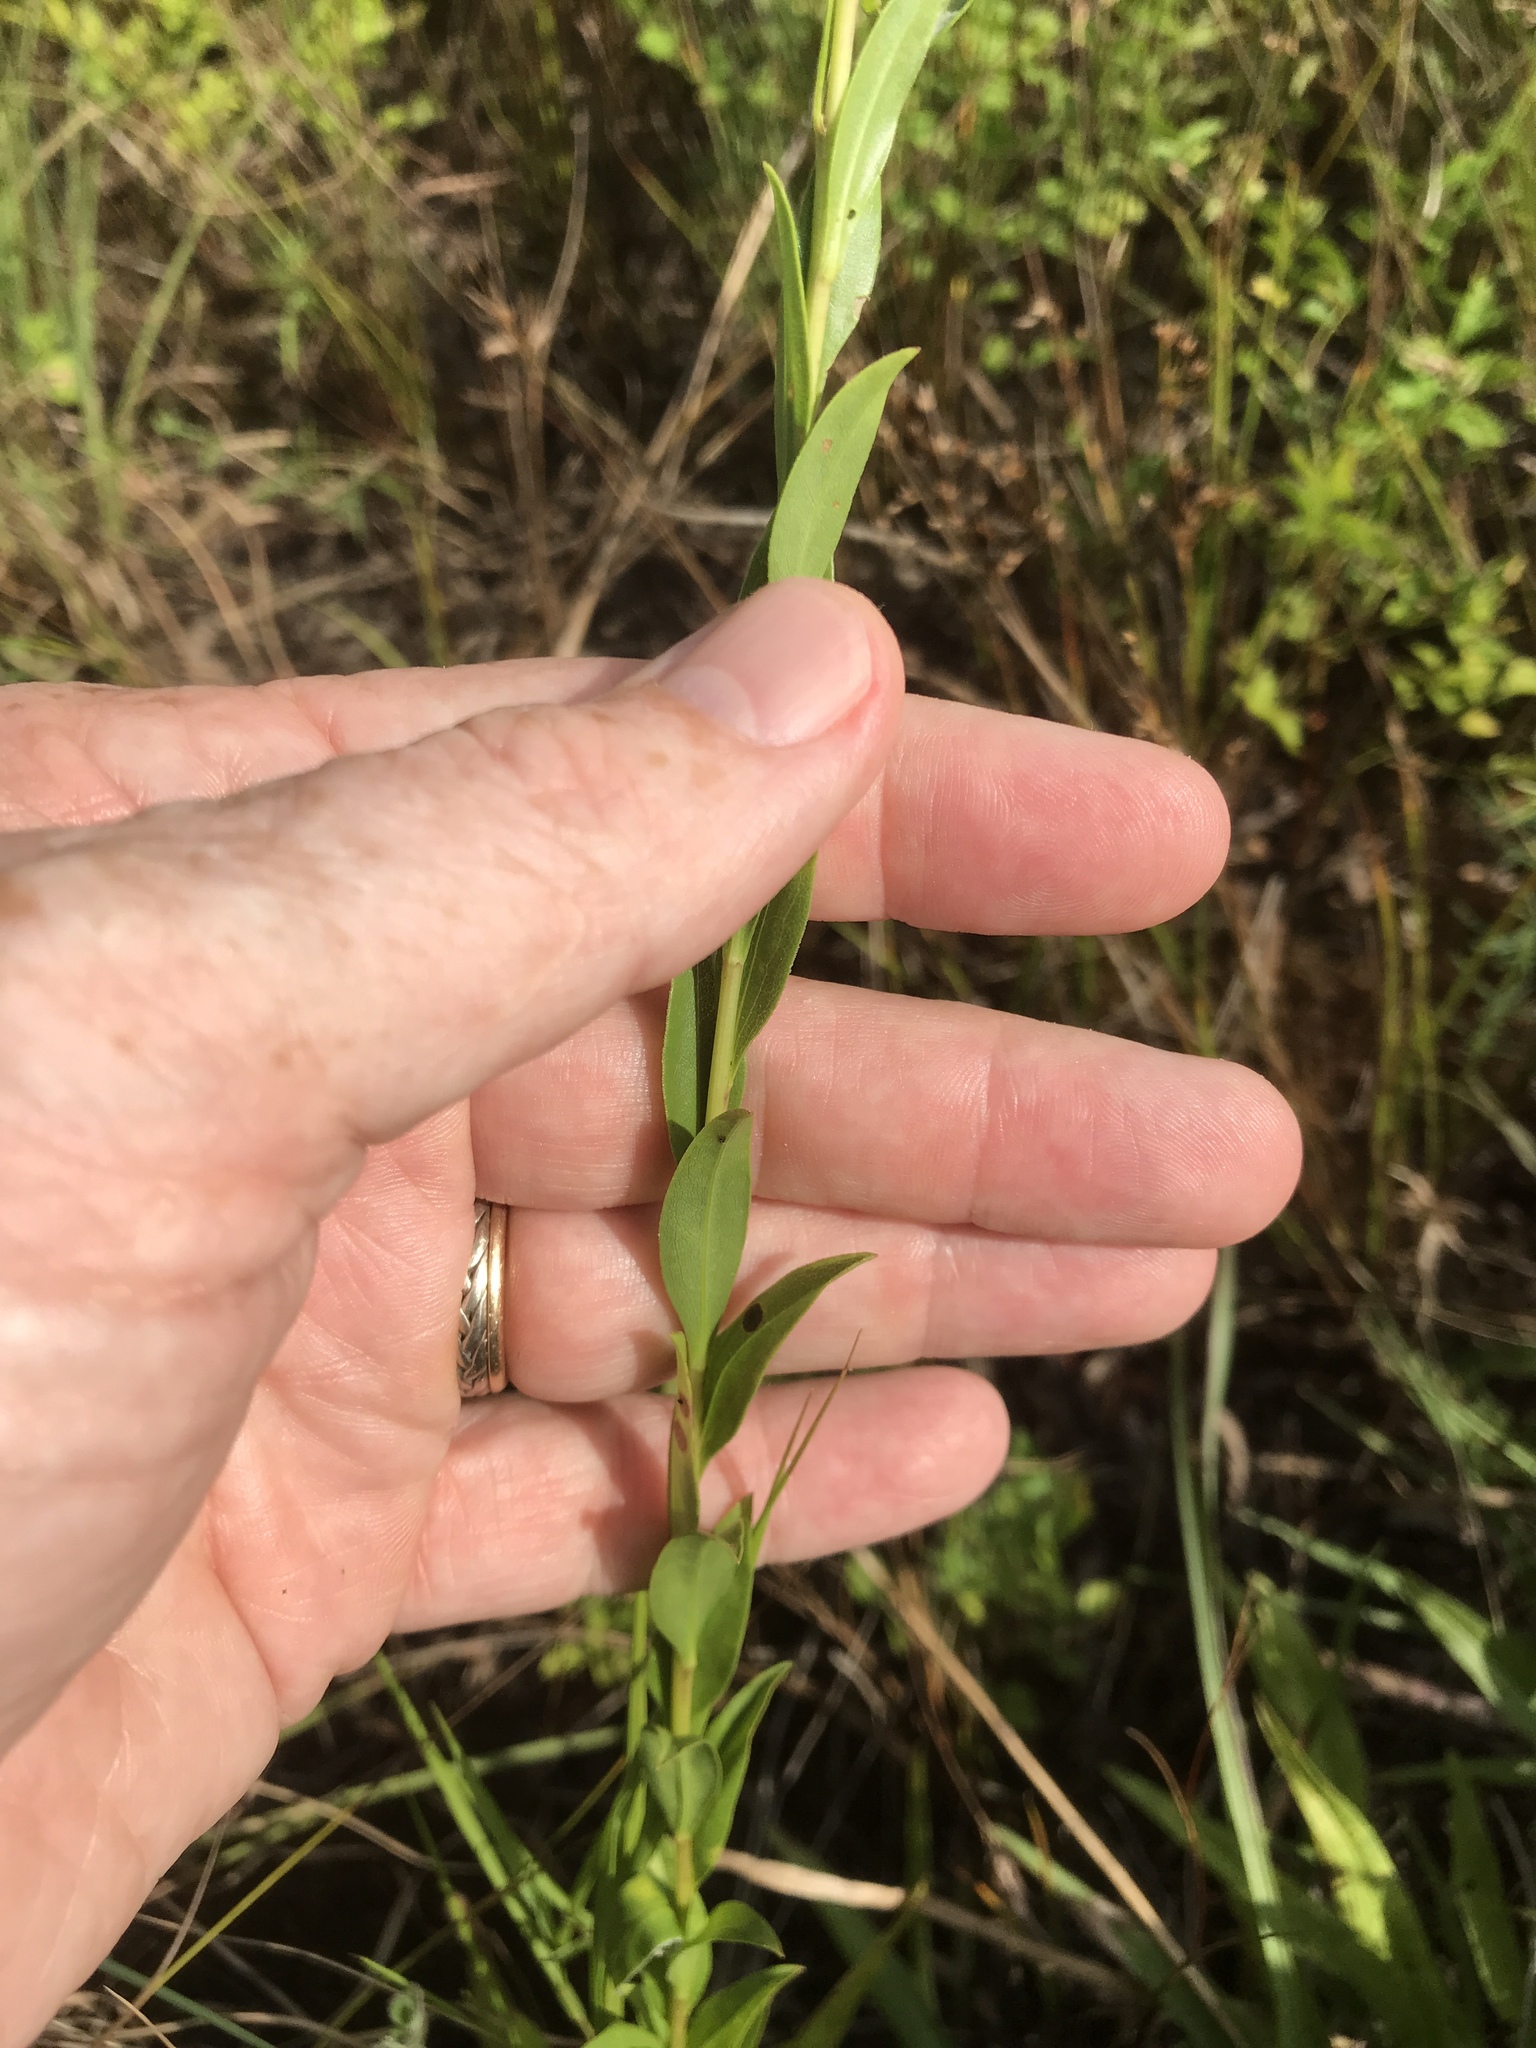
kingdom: Plantae
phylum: Tracheophyta
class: Magnoliopsida
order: Asterales
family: Asteraceae
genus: Solidago
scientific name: Solidago gracillima
